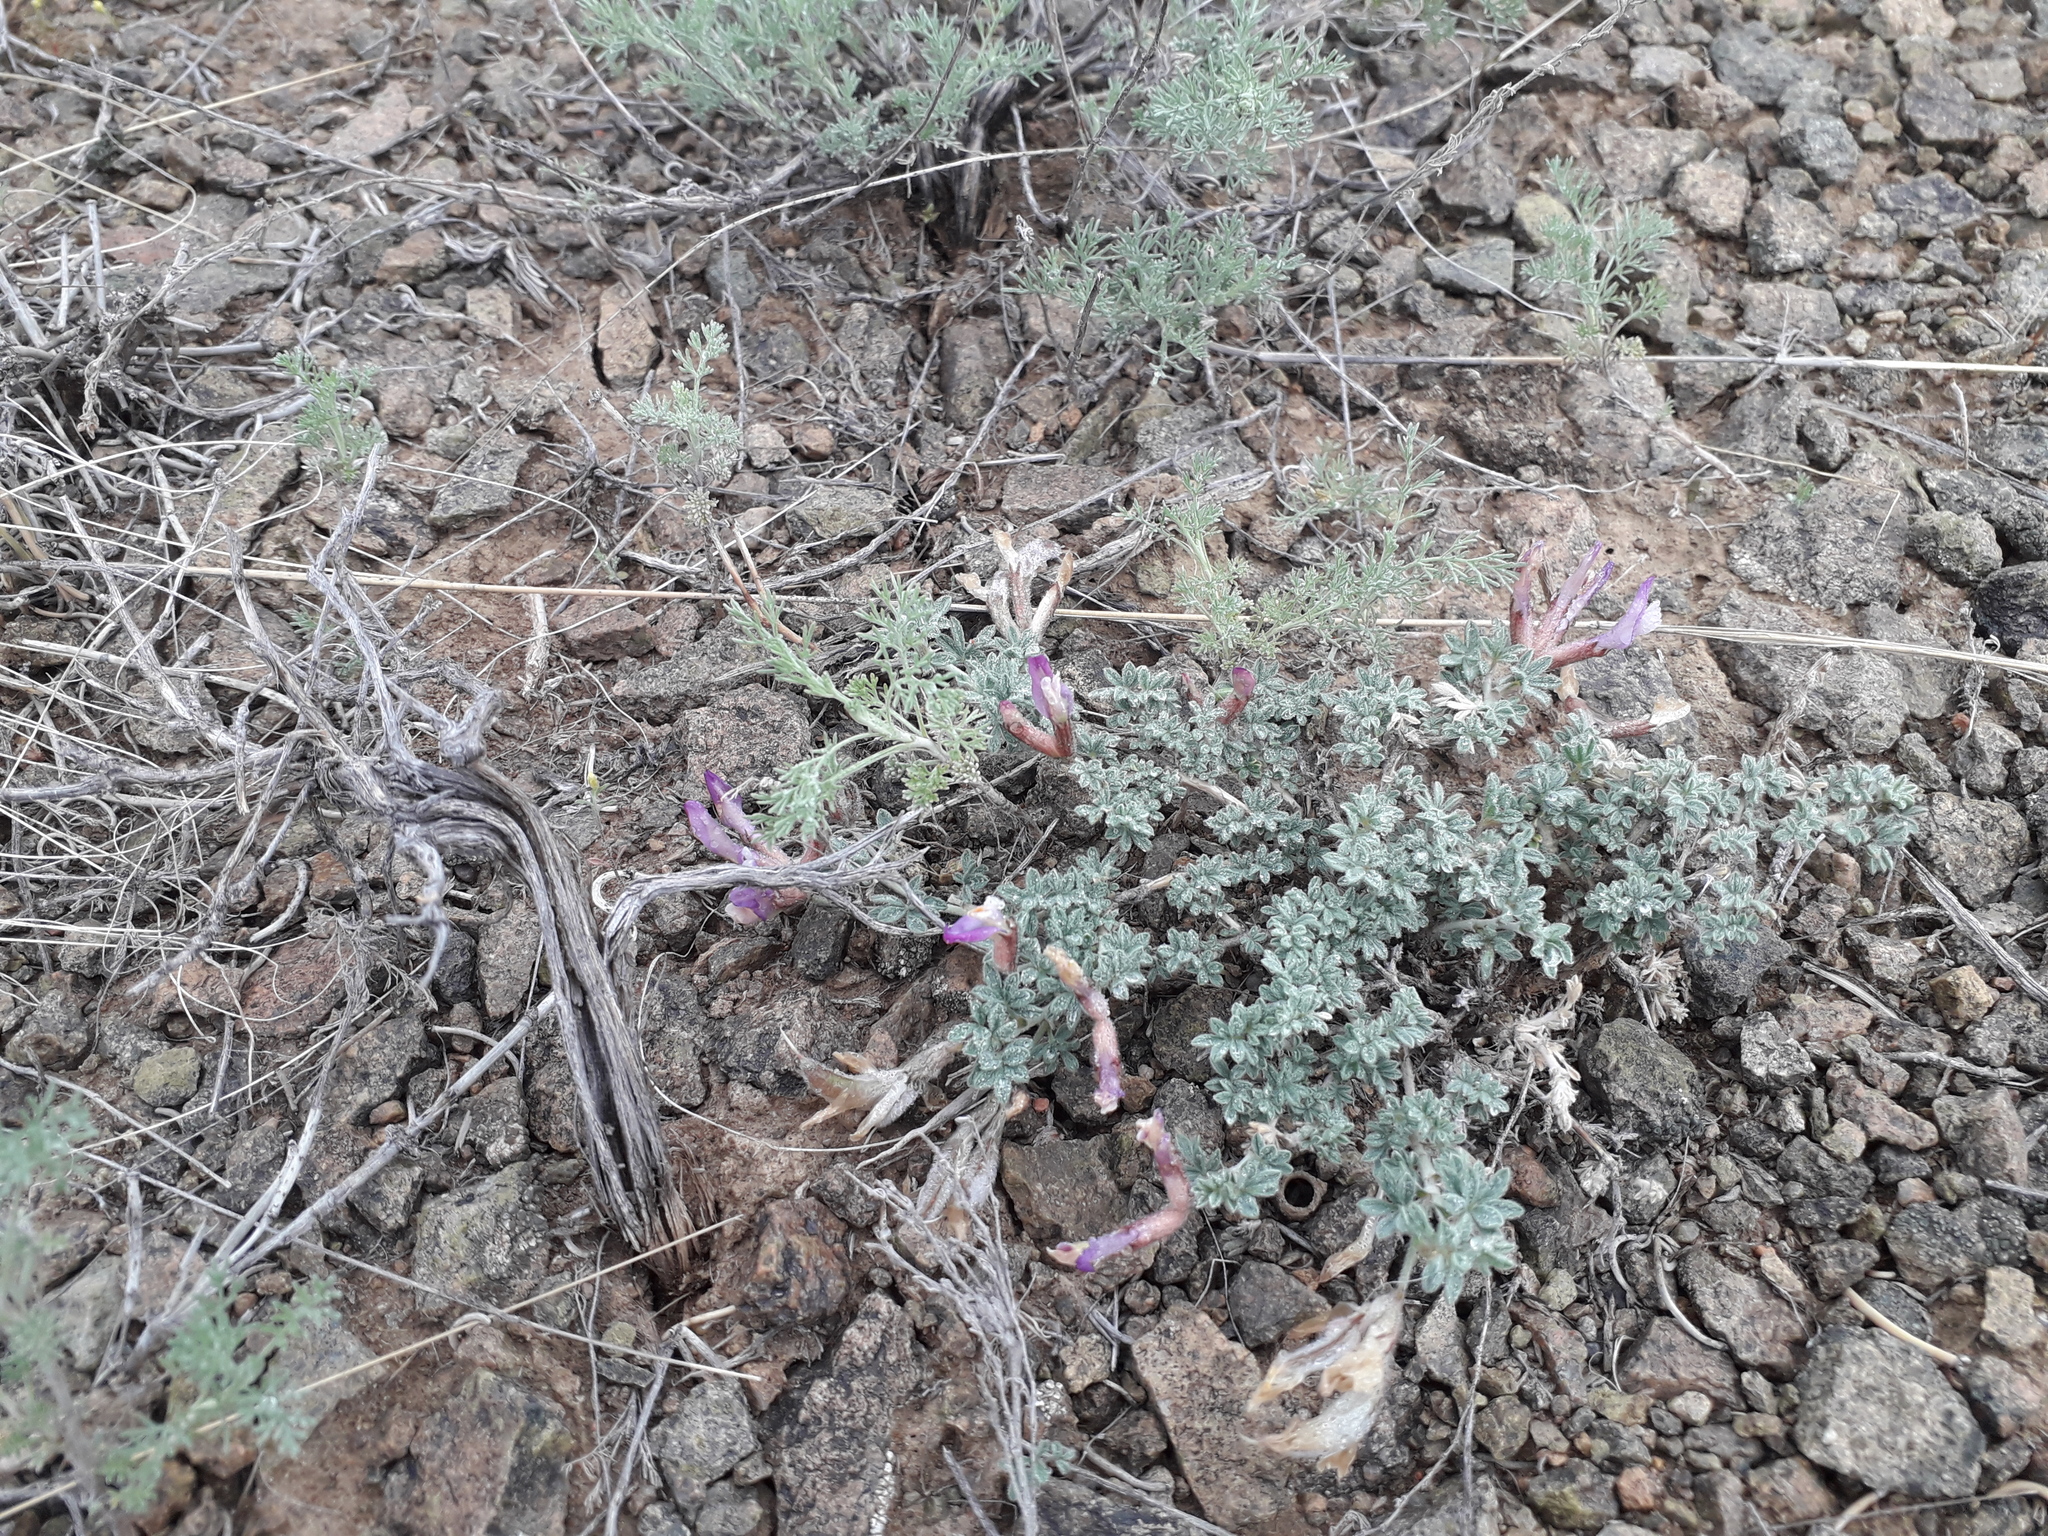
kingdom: Plantae
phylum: Tracheophyta
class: Magnoliopsida
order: Fabales
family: Fabaceae
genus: Astragalus
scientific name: Astragalus arcuatus
